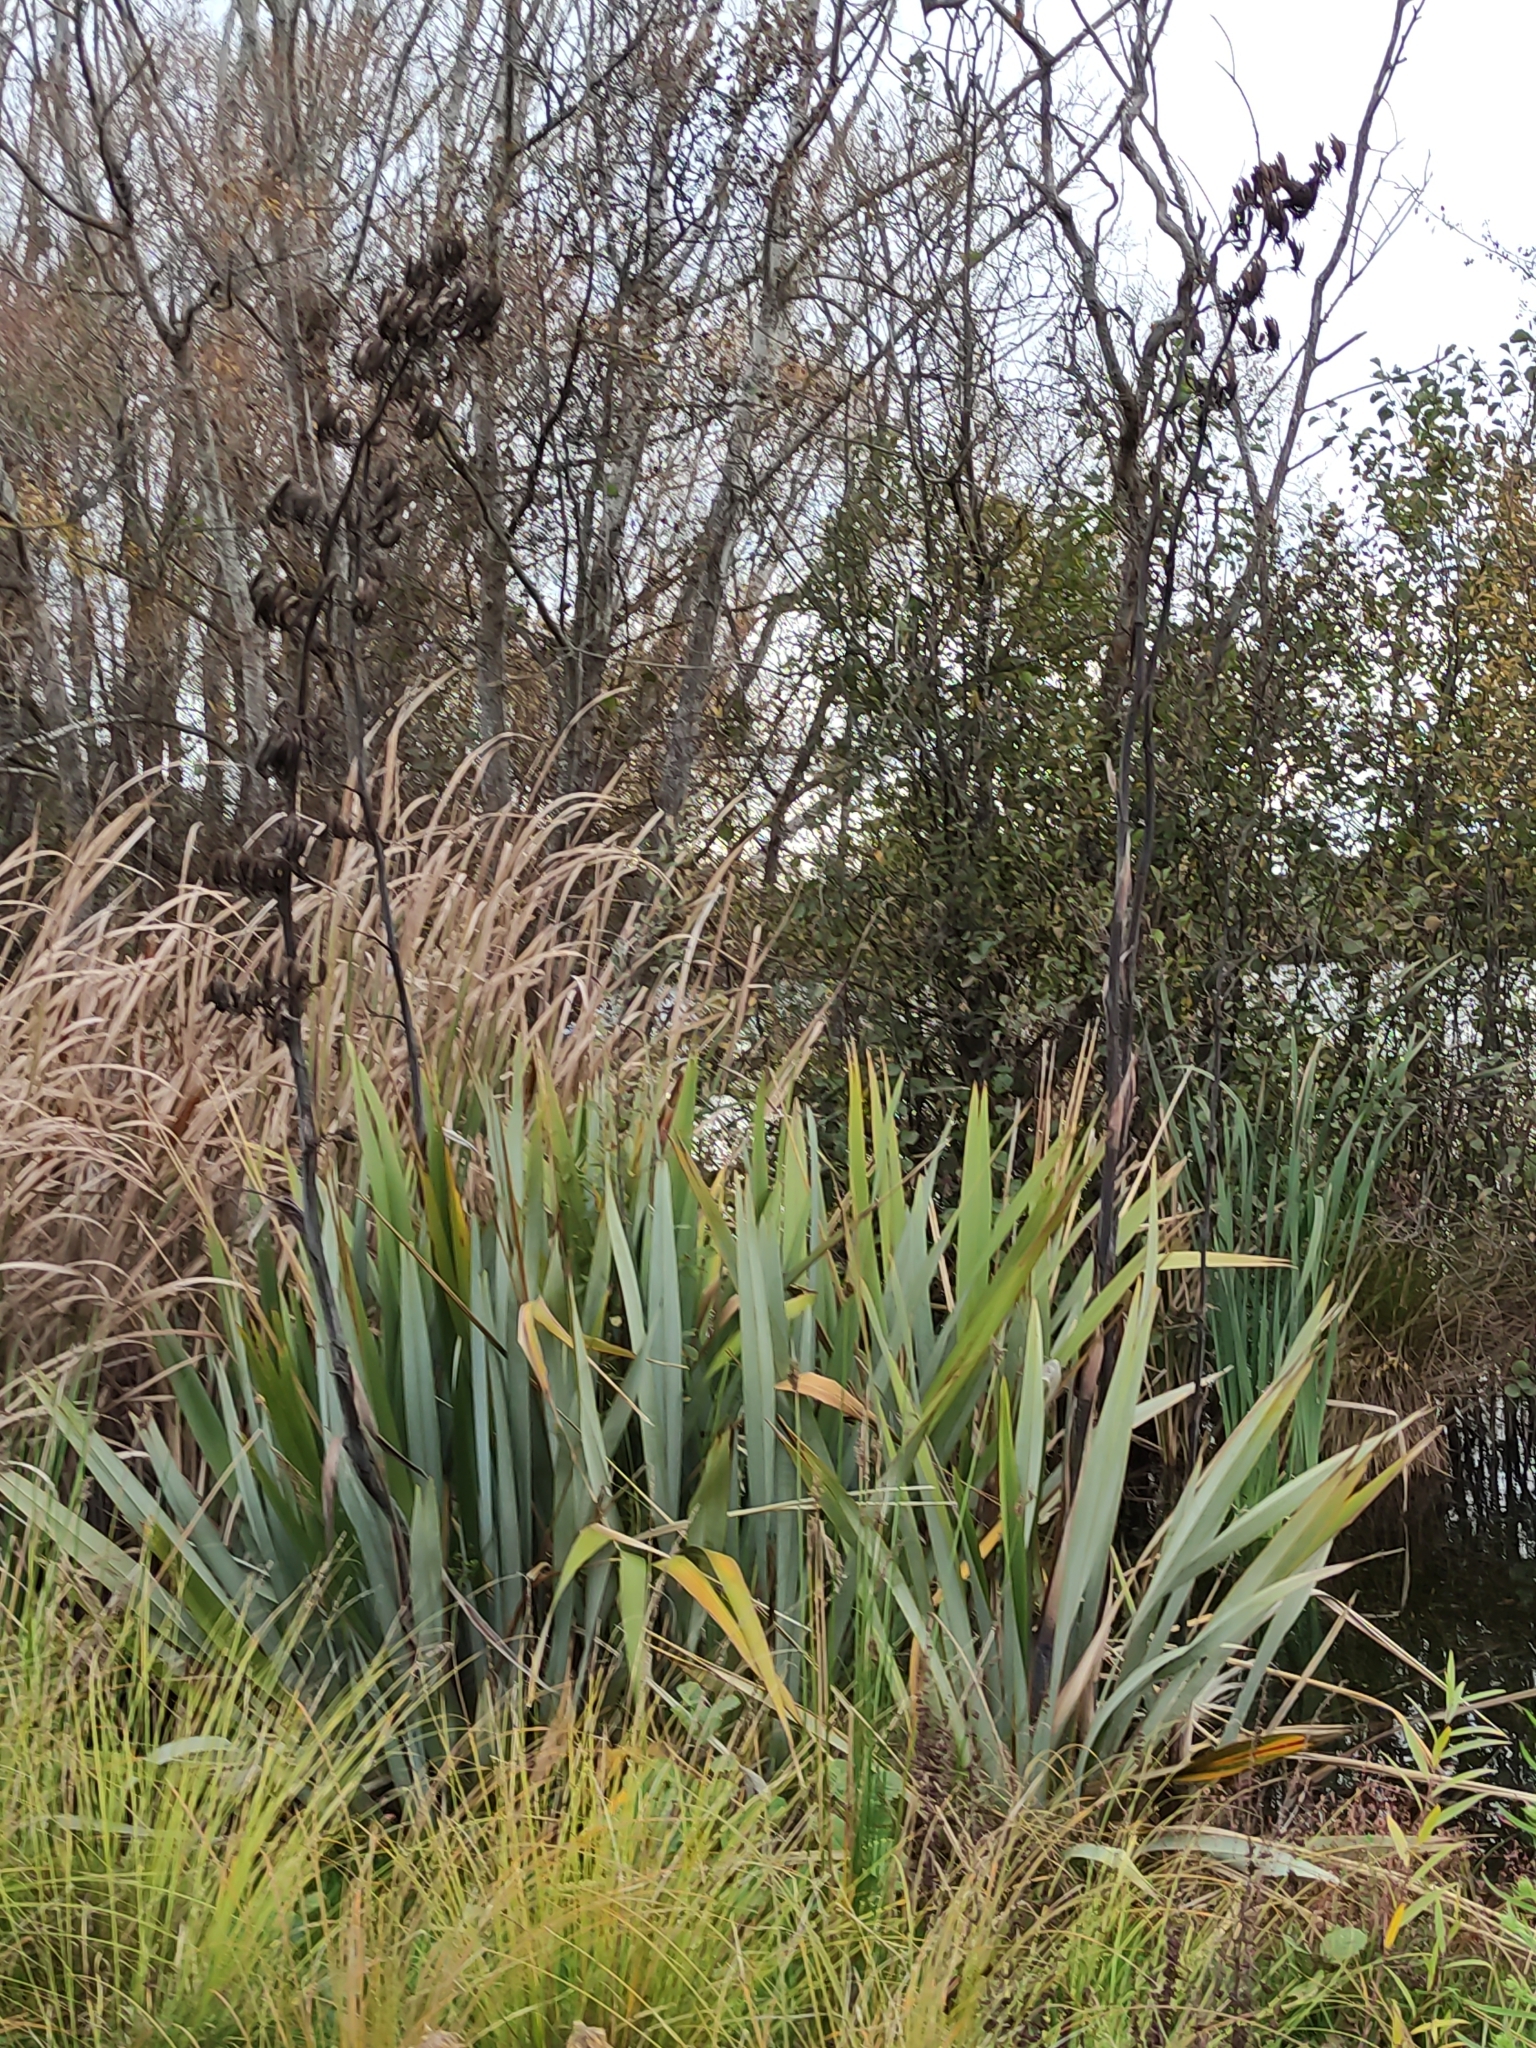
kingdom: Plantae
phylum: Tracheophyta
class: Liliopsida
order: Asparagales
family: Asphodelaceae
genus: Phormium
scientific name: Phormium tenax
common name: New zealand flax
